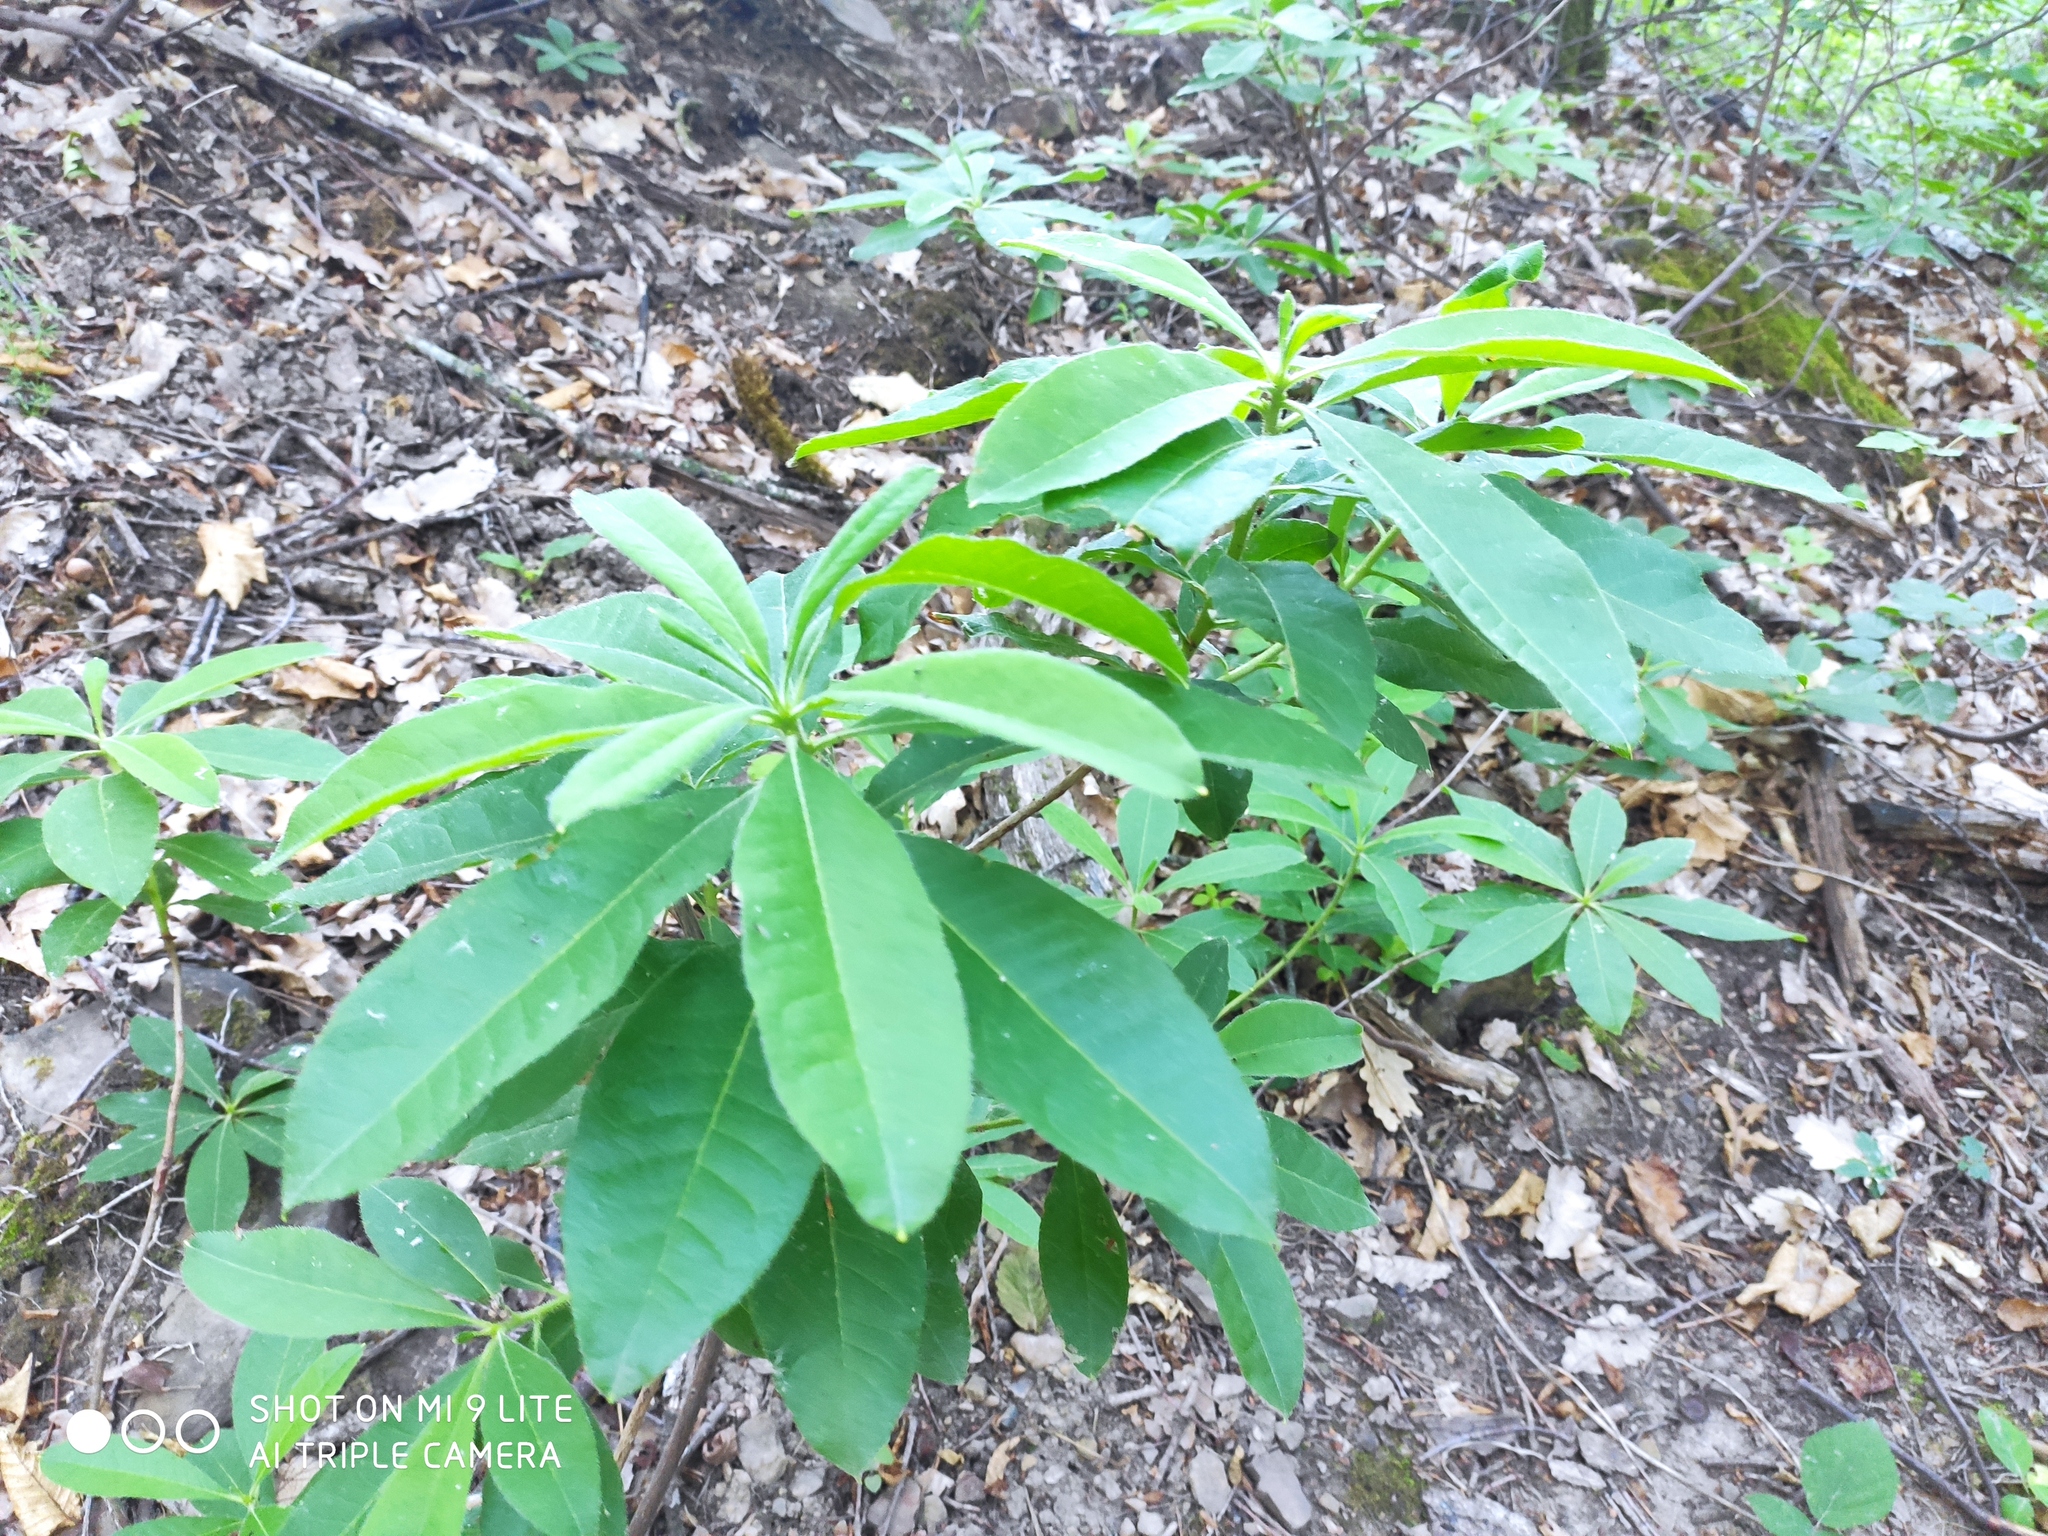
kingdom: Plantae
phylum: Tracheophyta
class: Magnoliopsida
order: Ericales
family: Ericaceae
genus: Rhododendron
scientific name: Rhododendron luteum
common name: Yellow azalea
